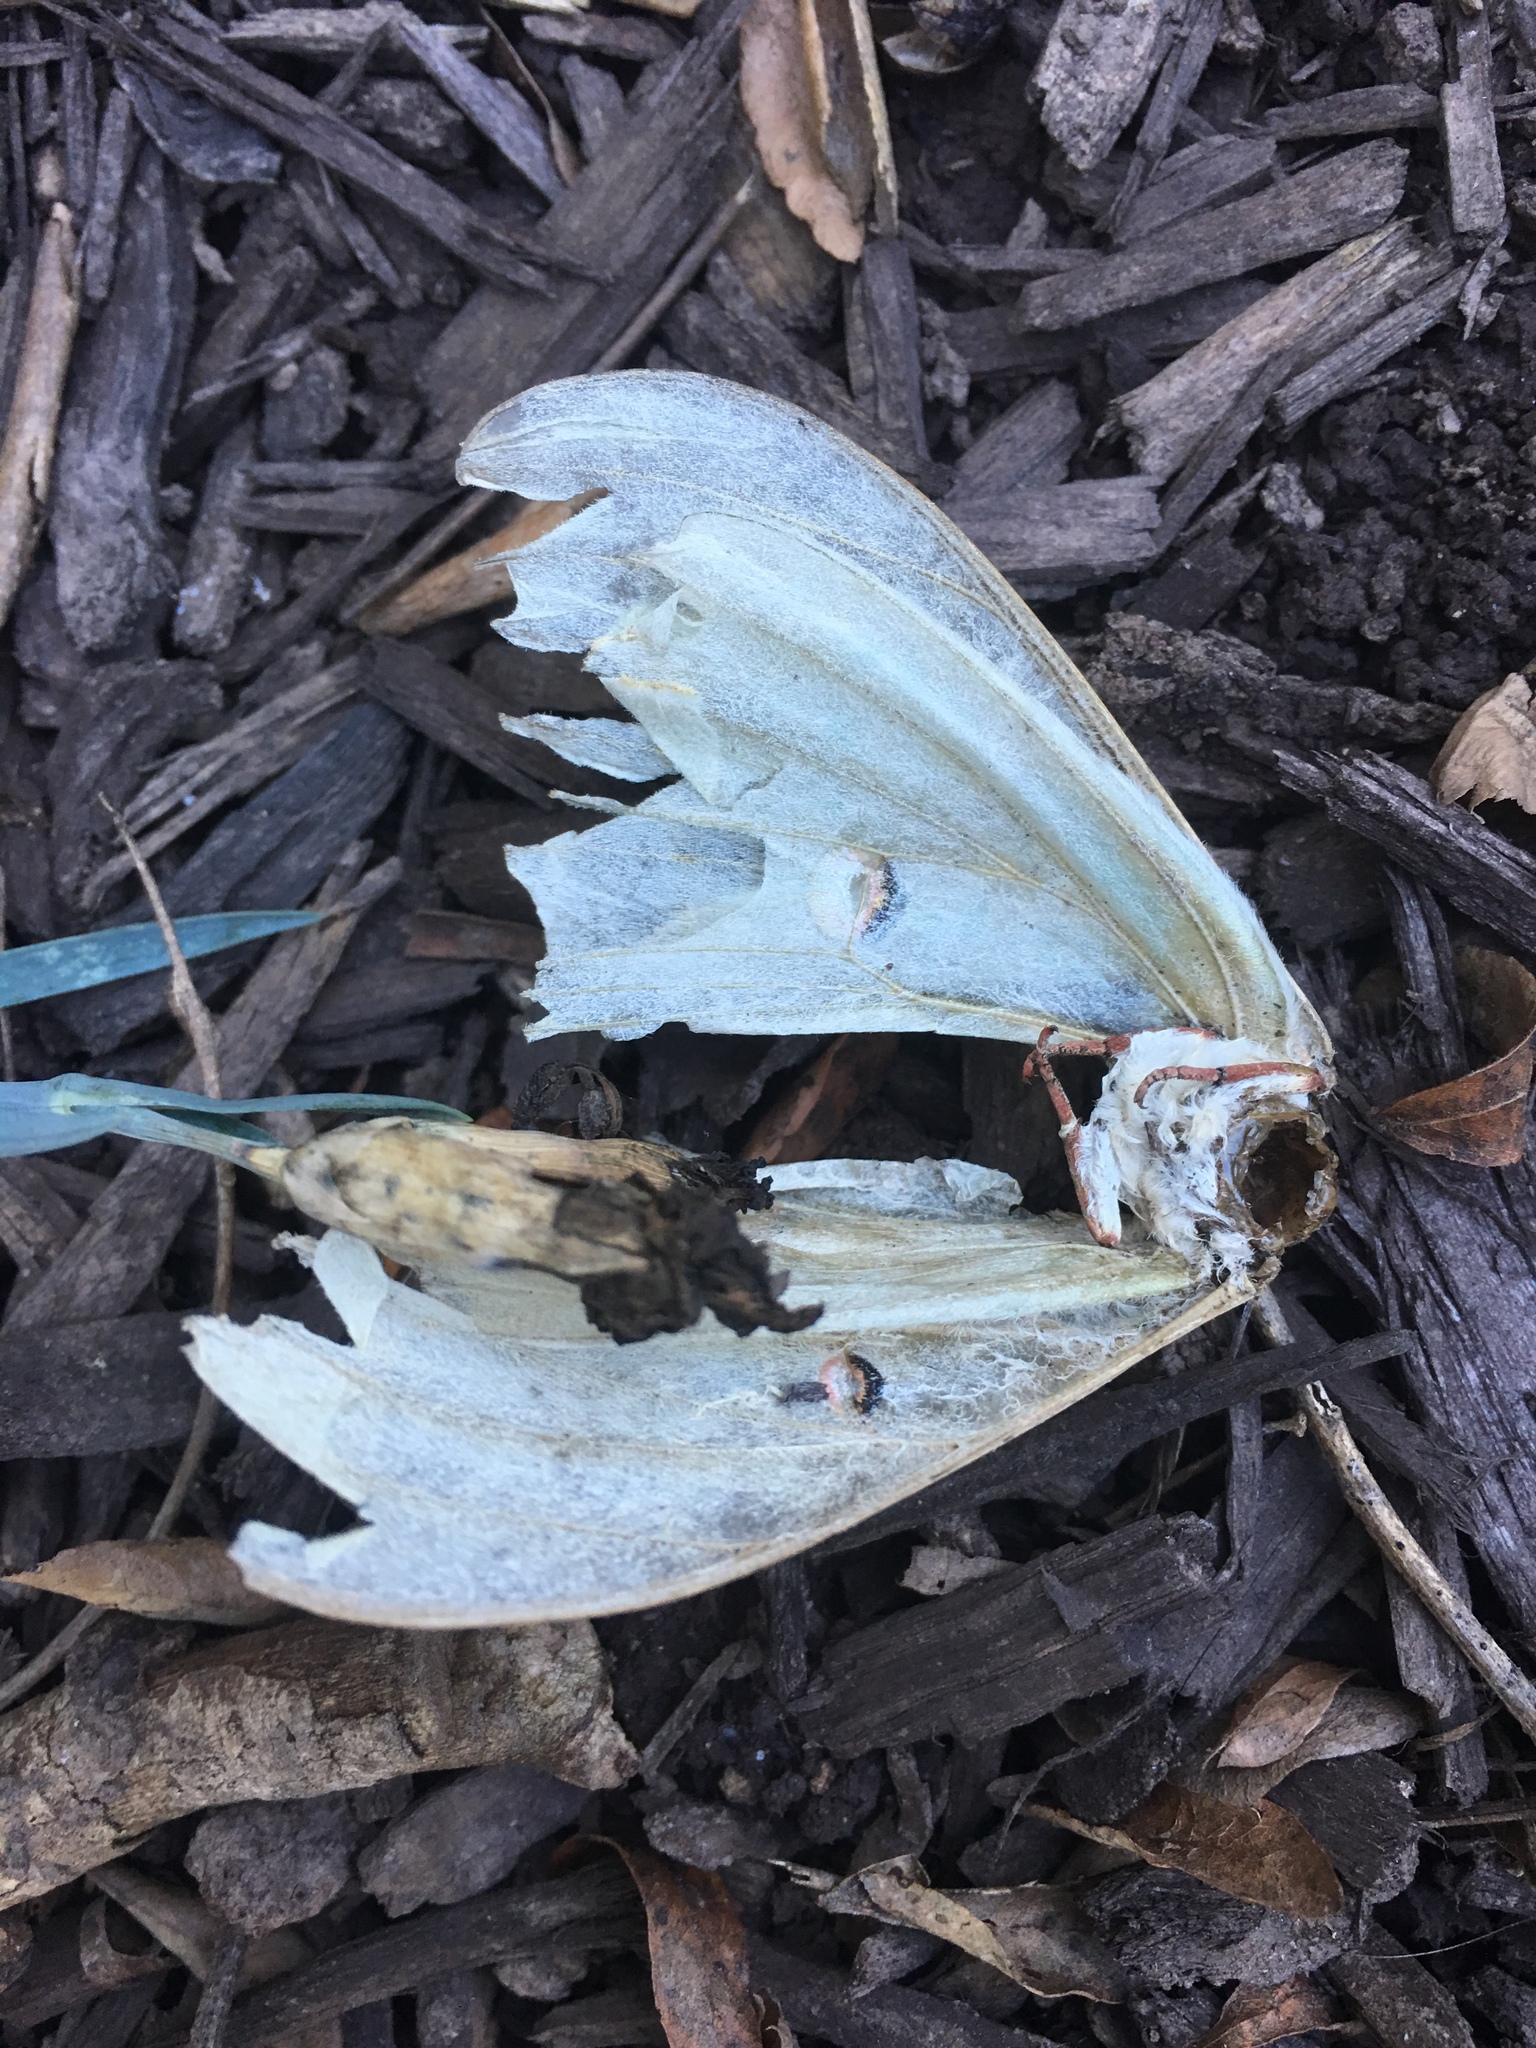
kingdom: Animalia
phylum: Arthropoda
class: Insecta
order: Lepidoptera
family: Saturniidae
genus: Actias
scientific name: Actias luna
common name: Luna moth
